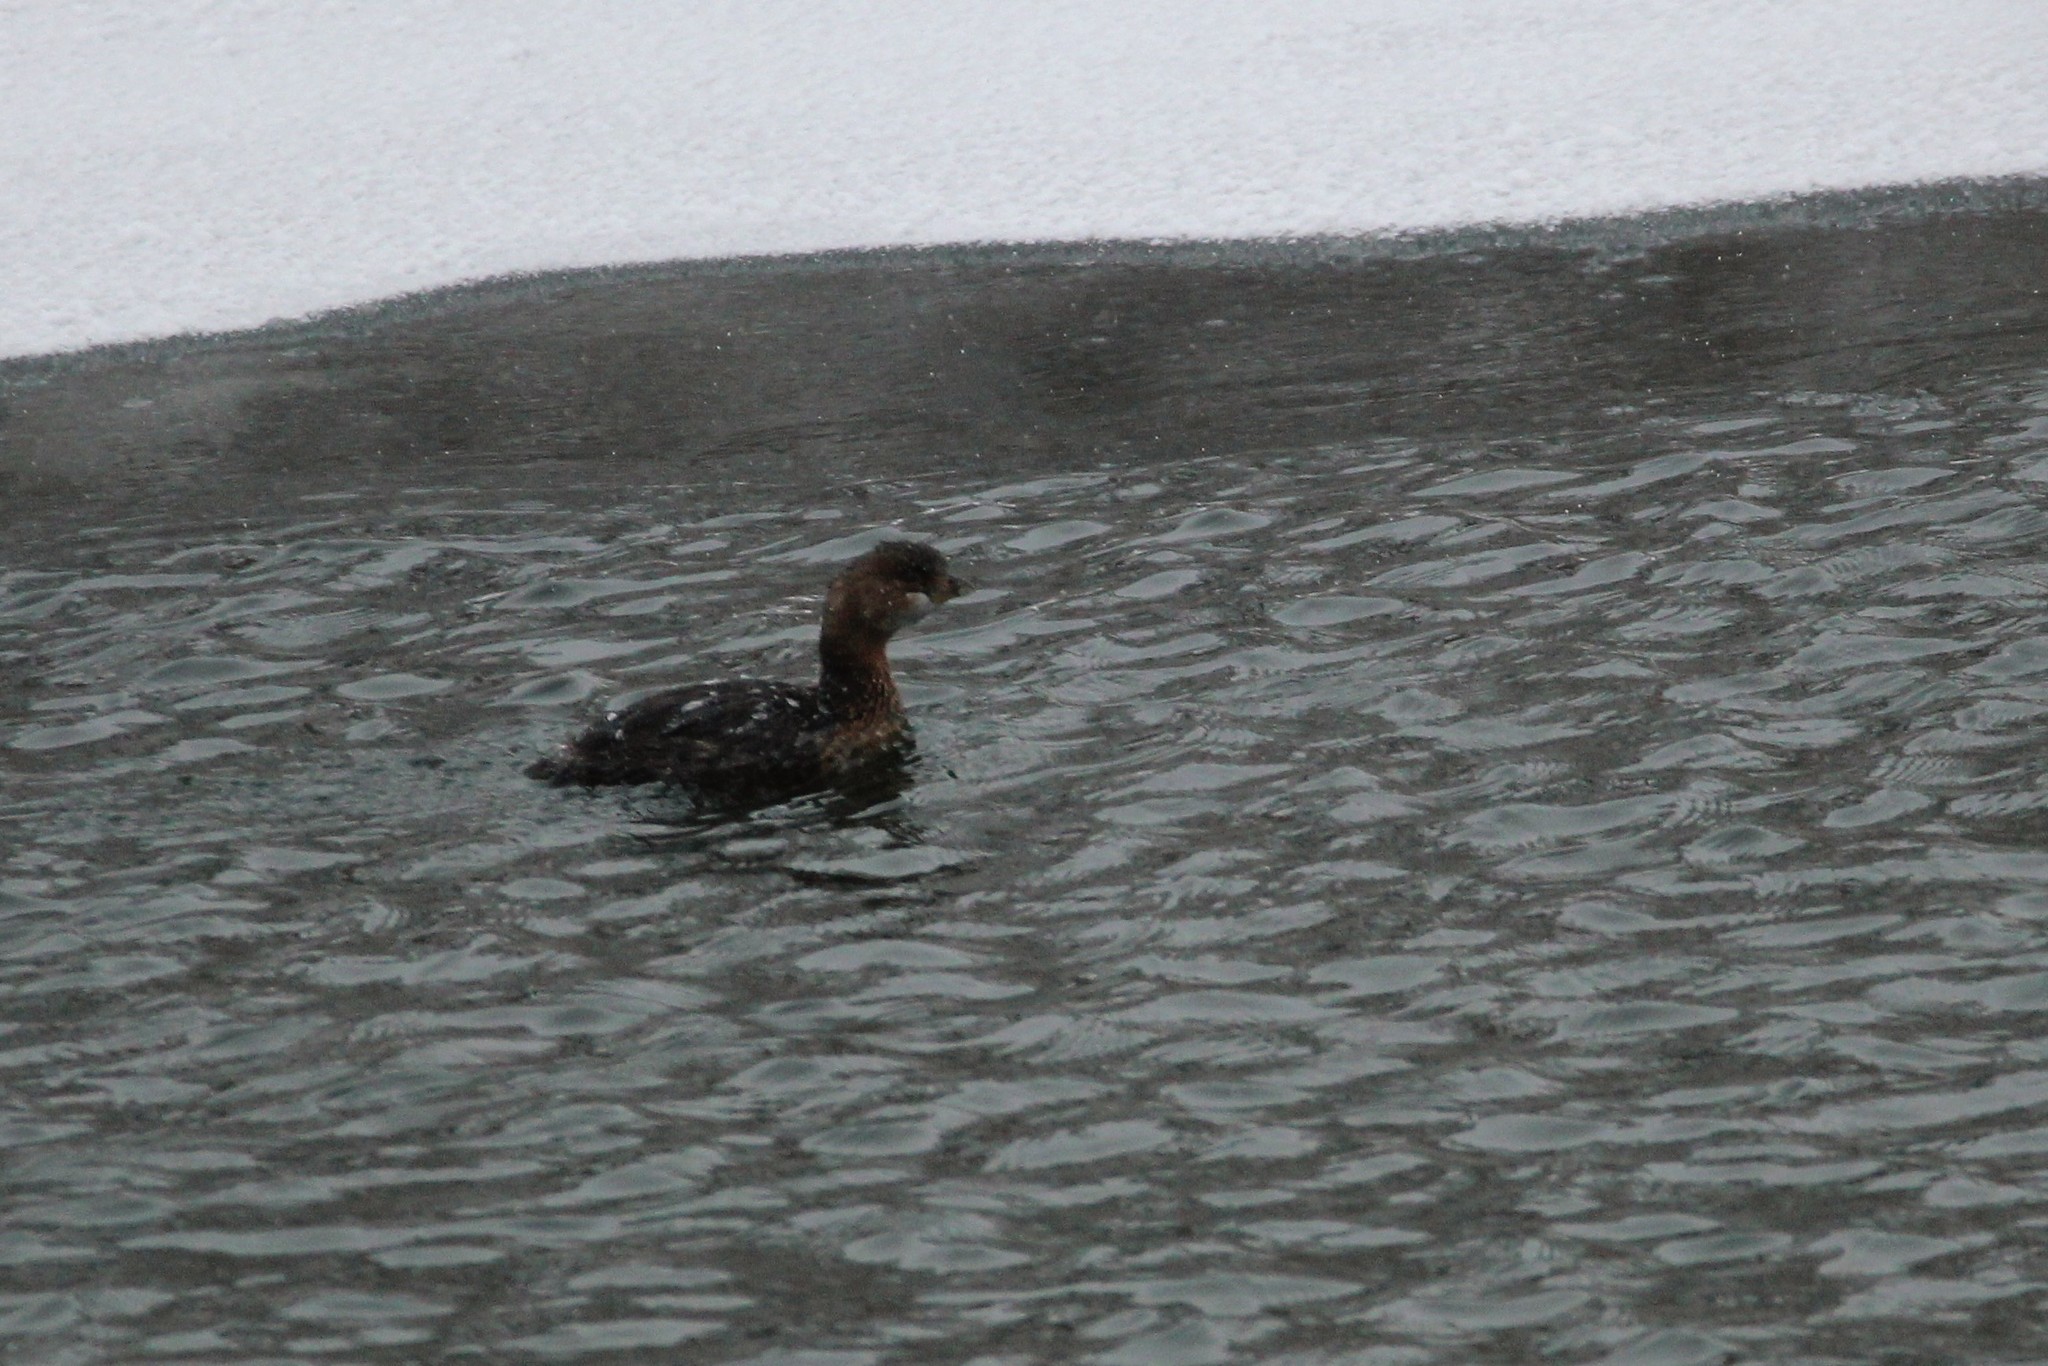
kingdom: Animalia
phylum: Chordata
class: Aves
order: Podicipediformes
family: Podicipedidae
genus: Podilymbus
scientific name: Podilymbus podiceps
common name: Pied-billed grebe
